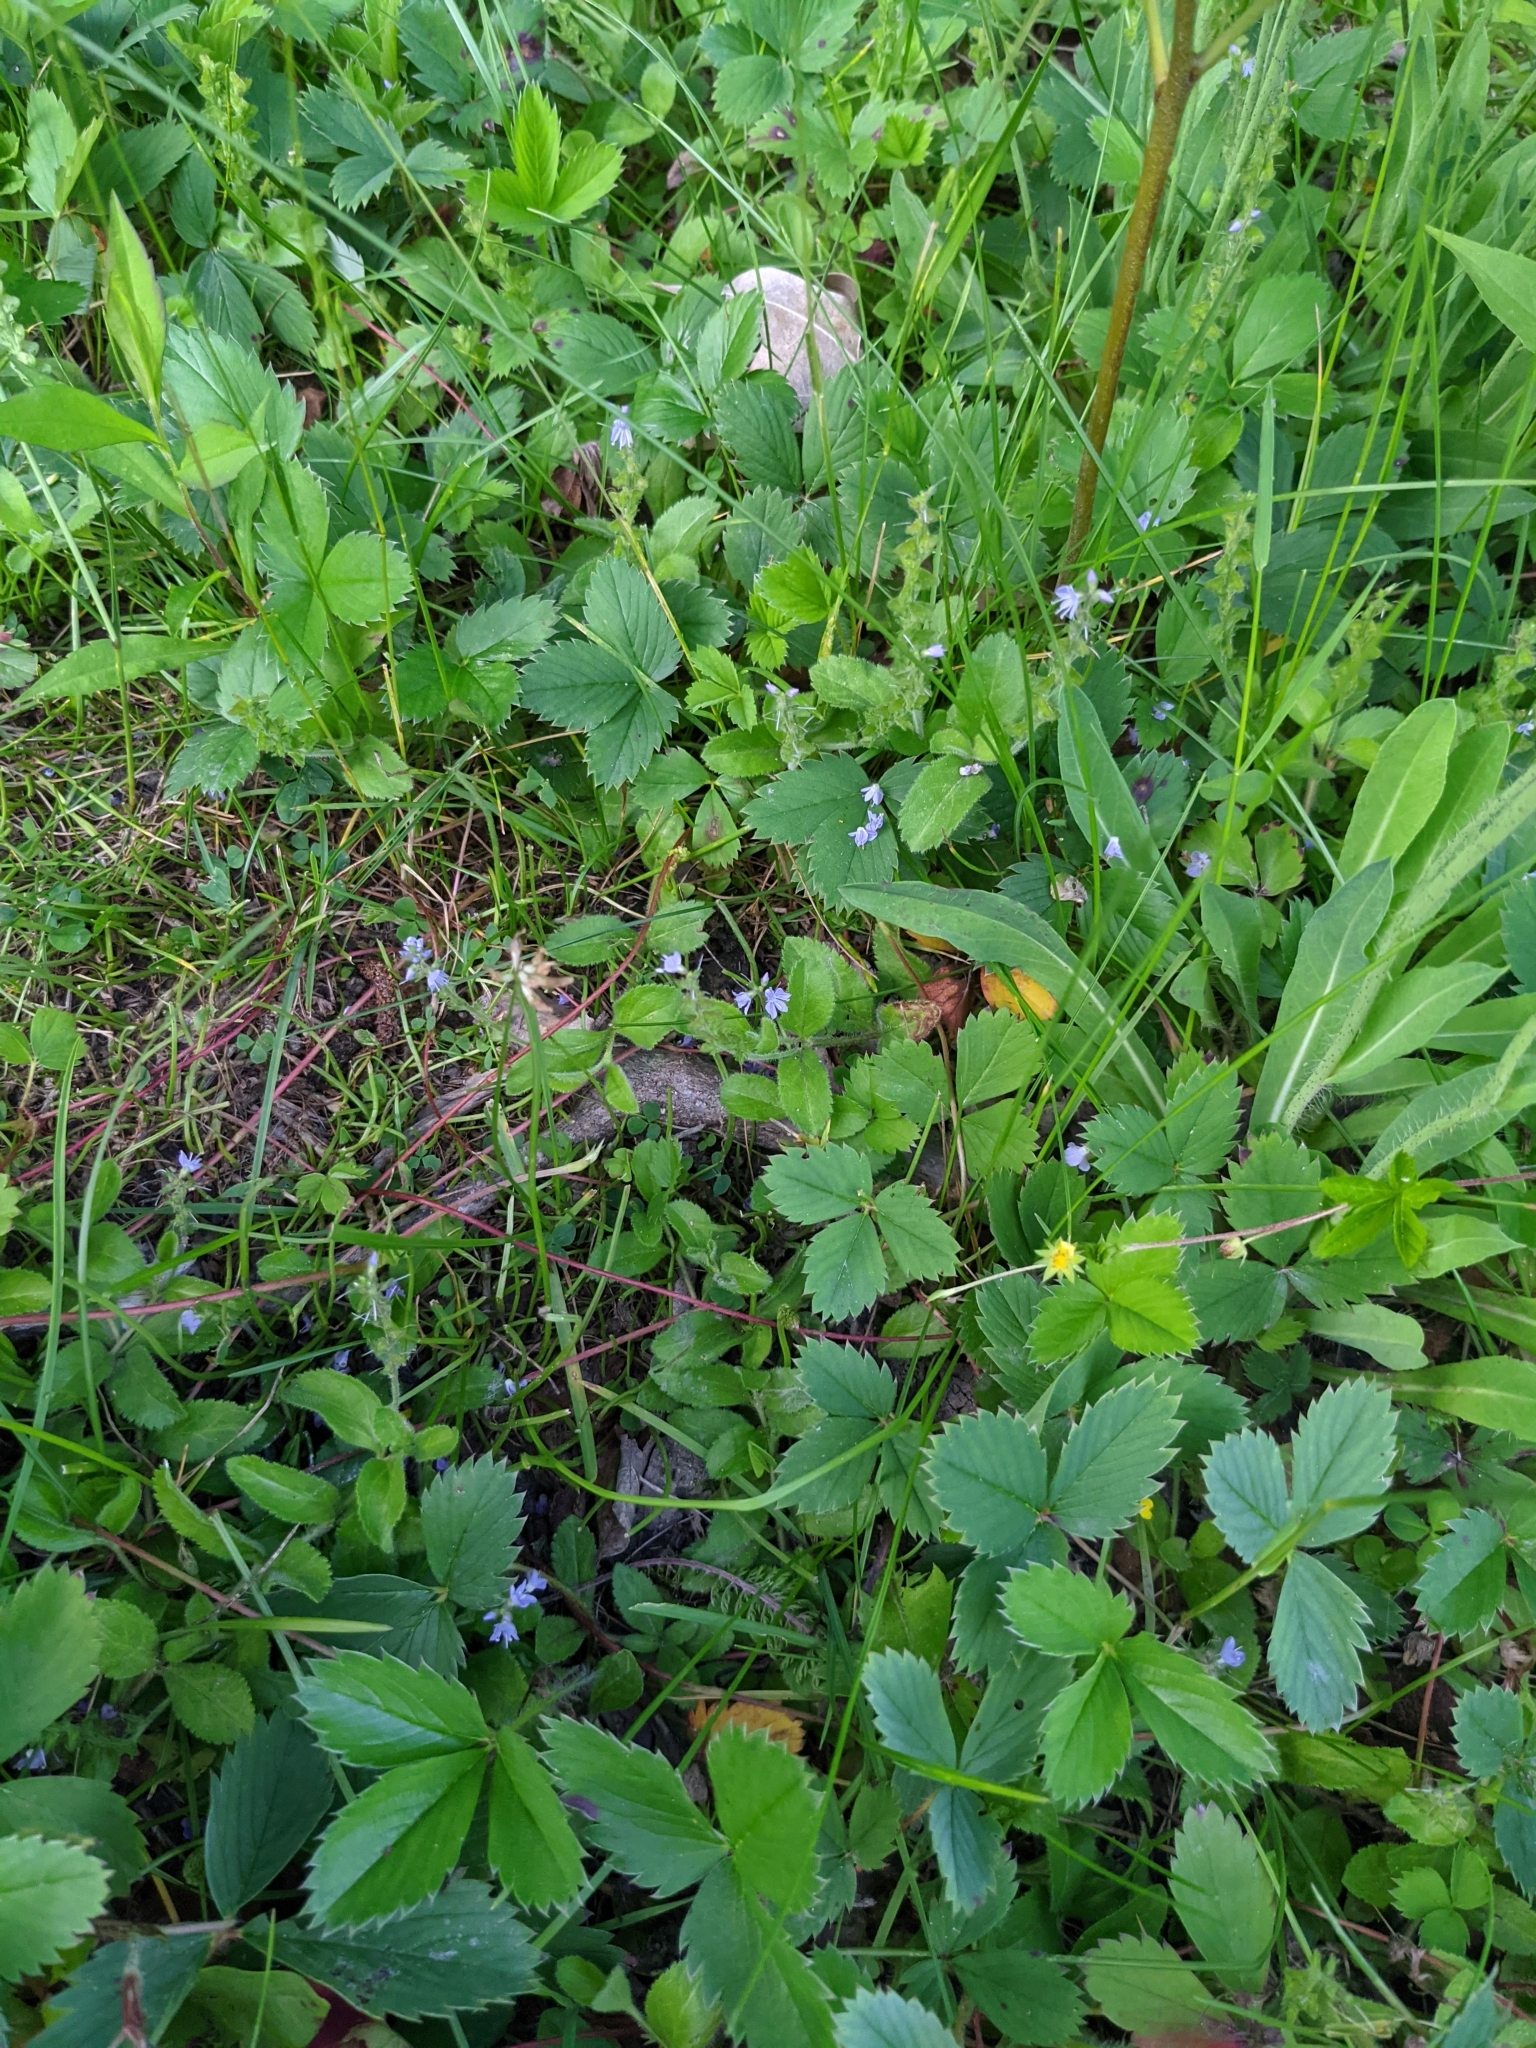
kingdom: Plantae
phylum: Tracheophyta
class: Magnoliopsida
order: Lamiales
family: Plantaginaceae
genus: Veronica
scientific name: Veronica officinalis
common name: Common speedwell
